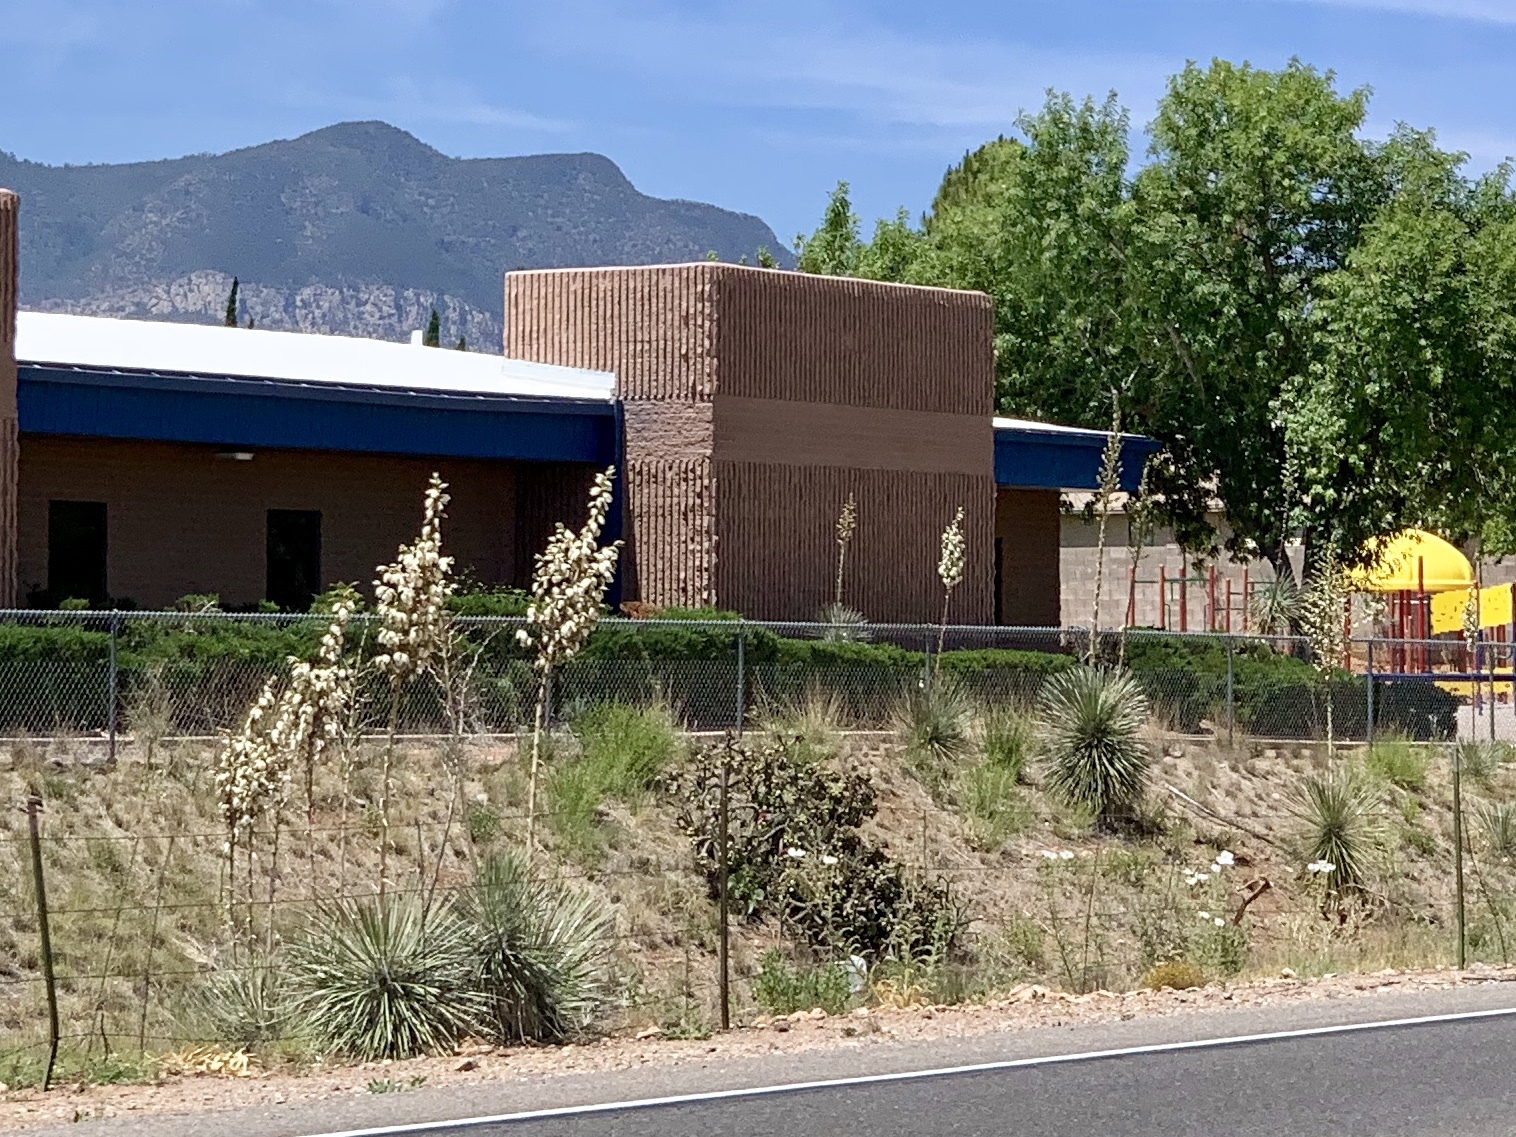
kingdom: Plantae
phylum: Tracheophyta
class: Liliopsida
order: Asparagales
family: Asparagaceae
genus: Yucca
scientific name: Yucca elata
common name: Palmella
